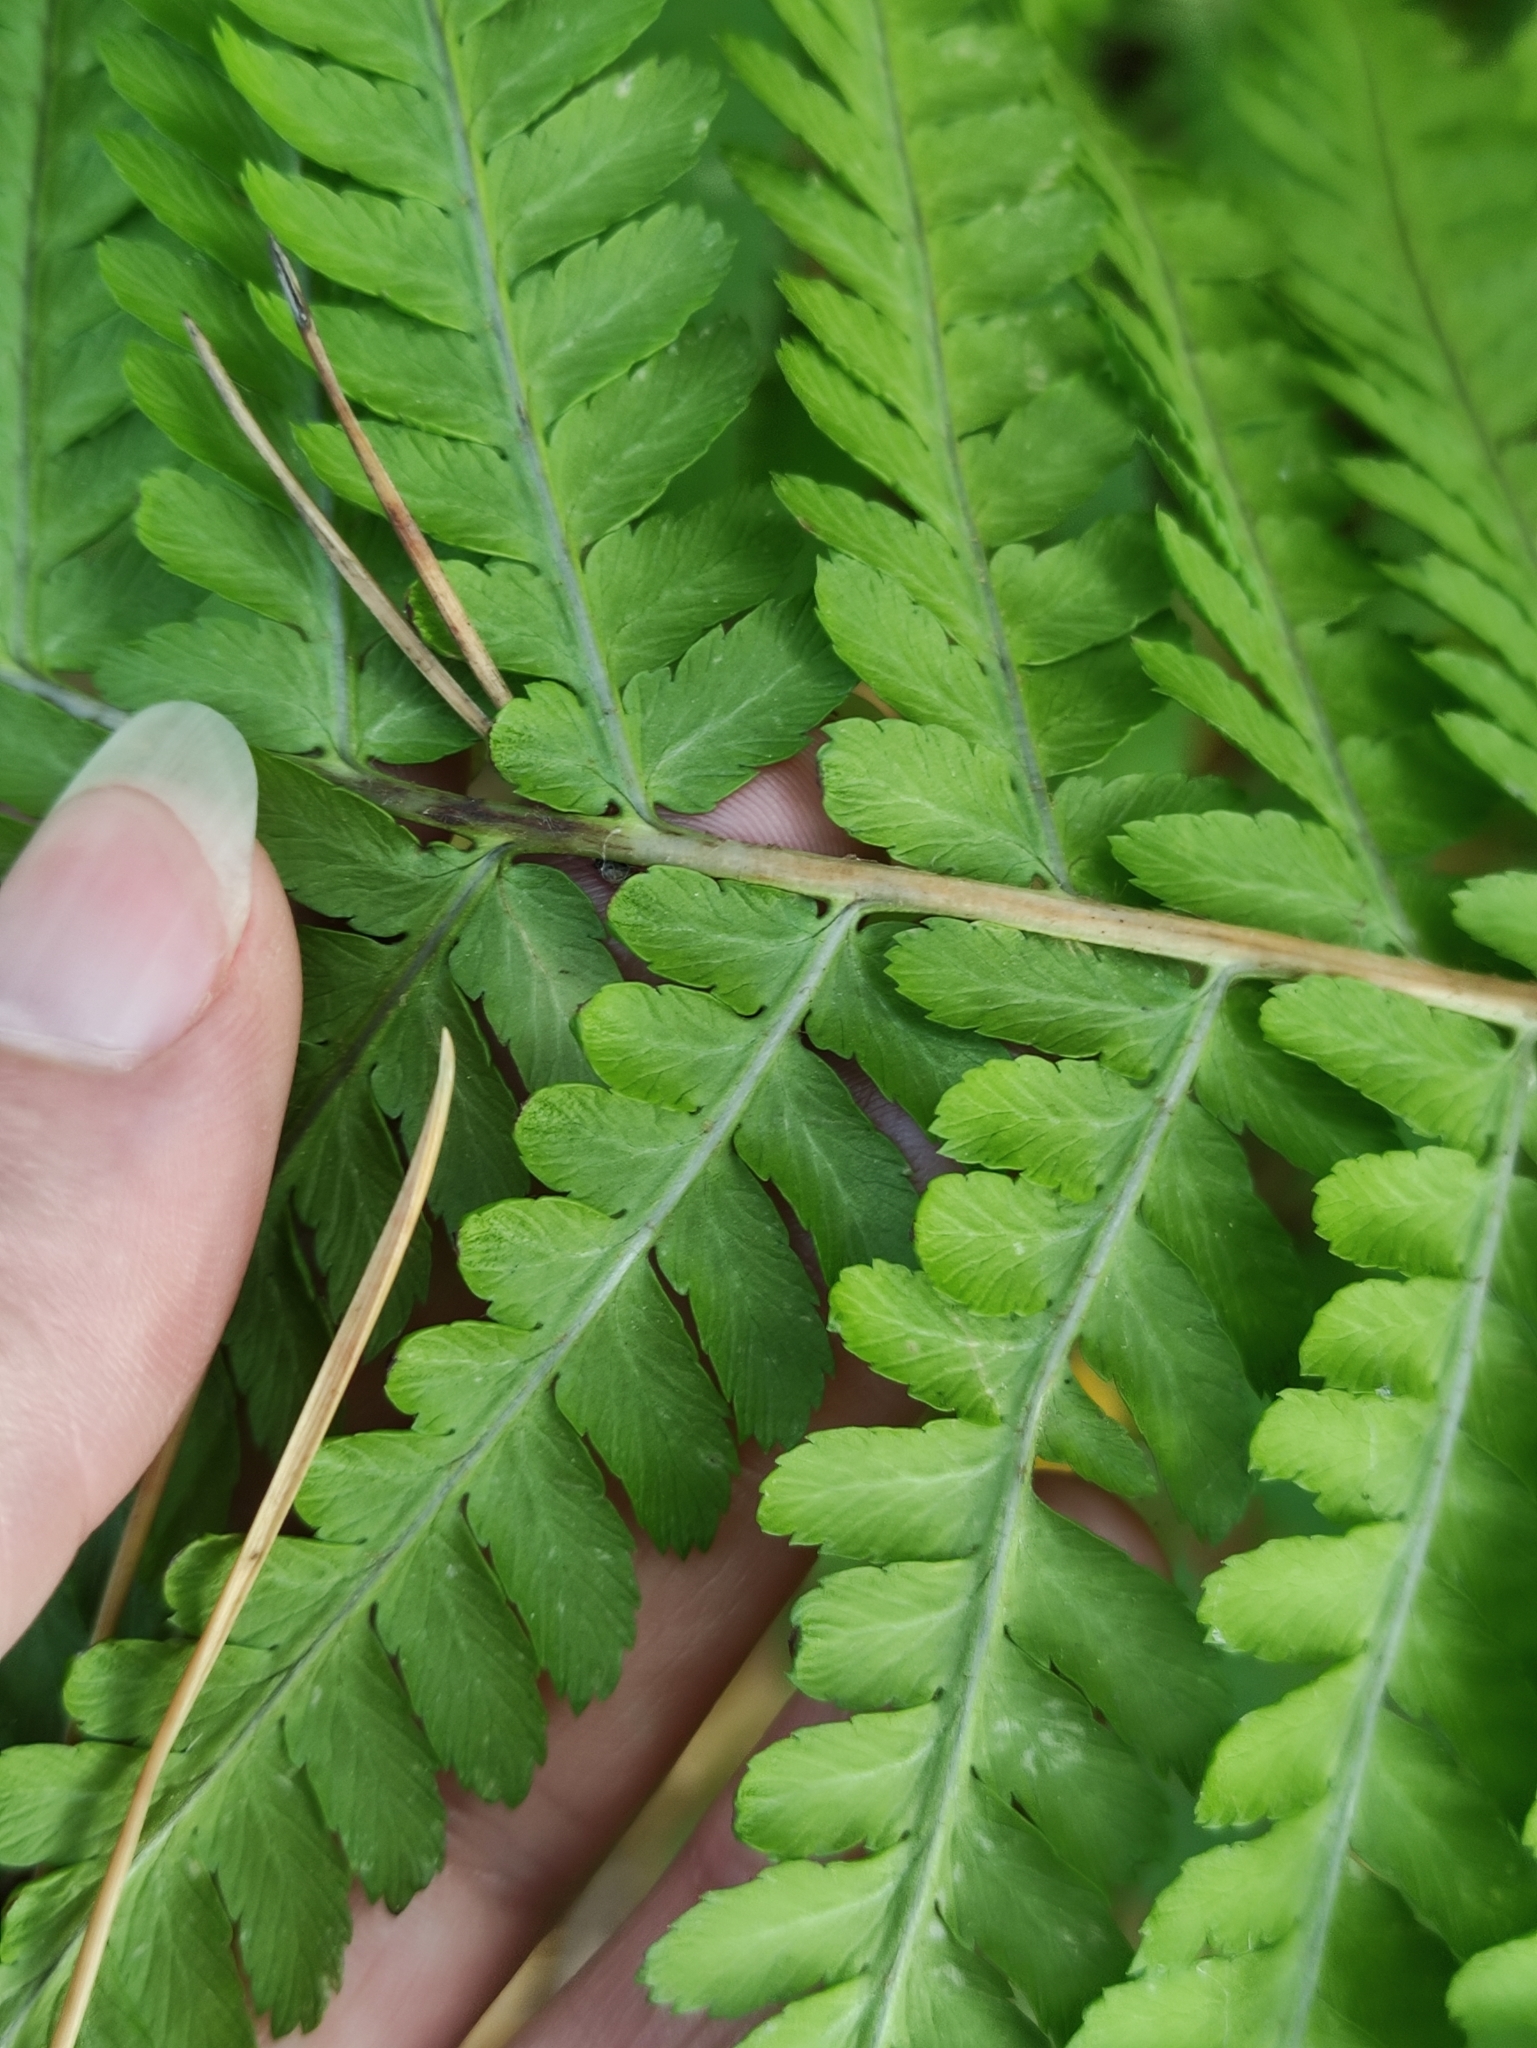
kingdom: Plantae
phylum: Tracheophyta
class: Polypodiopsida
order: Polypodiales
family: Dryopteridaceae
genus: Dryopteris
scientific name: Dryopteris filix-mas
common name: Male fern
